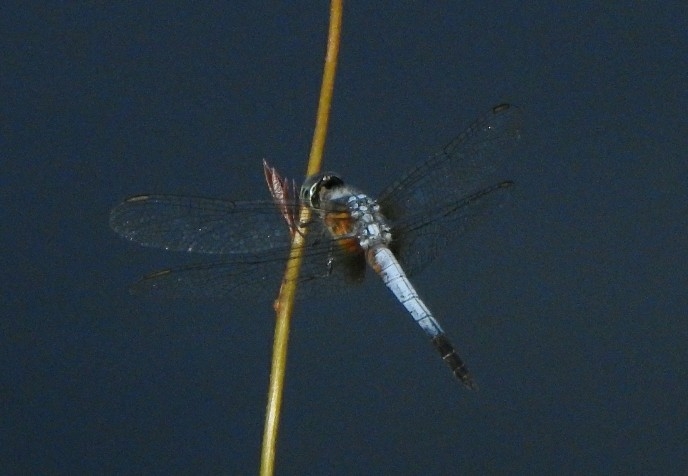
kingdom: Animalia
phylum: Arthropoda
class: Insecta
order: Odonata
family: Libellulidae
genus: Brachydiplax
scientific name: Brachydiplax chalybea
